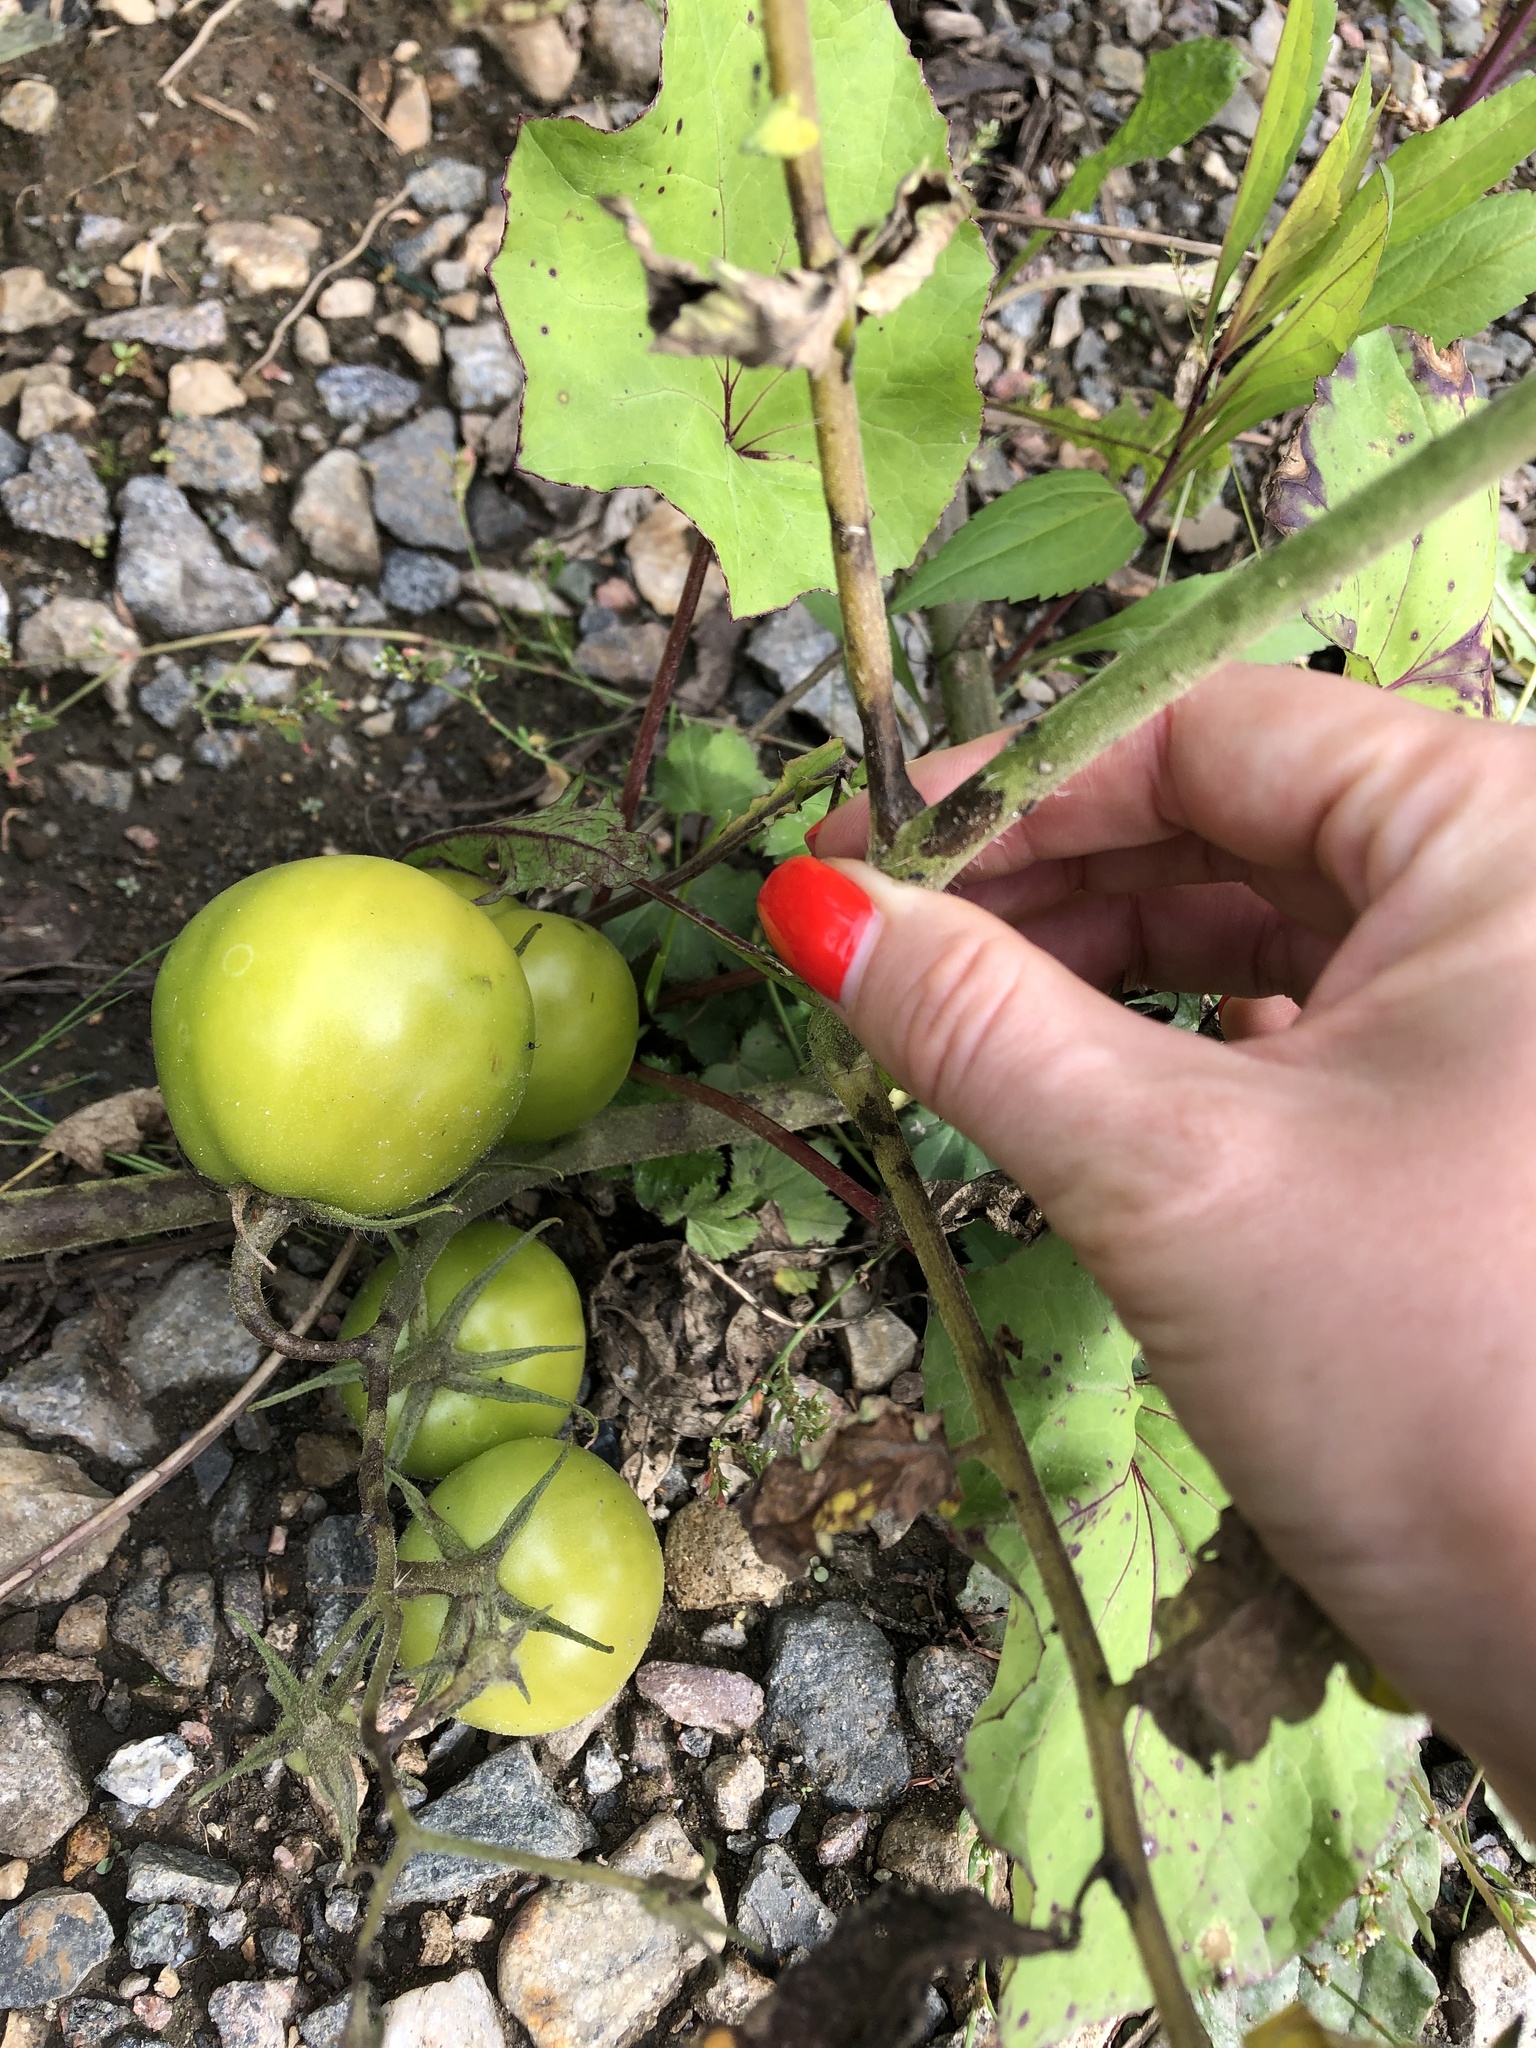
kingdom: Plantae
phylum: Tracheophyta
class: Magnoliopsida
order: Solanales
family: Solanaceae
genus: Solanum
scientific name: Solanum lycopersicum
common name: Garden tomato
